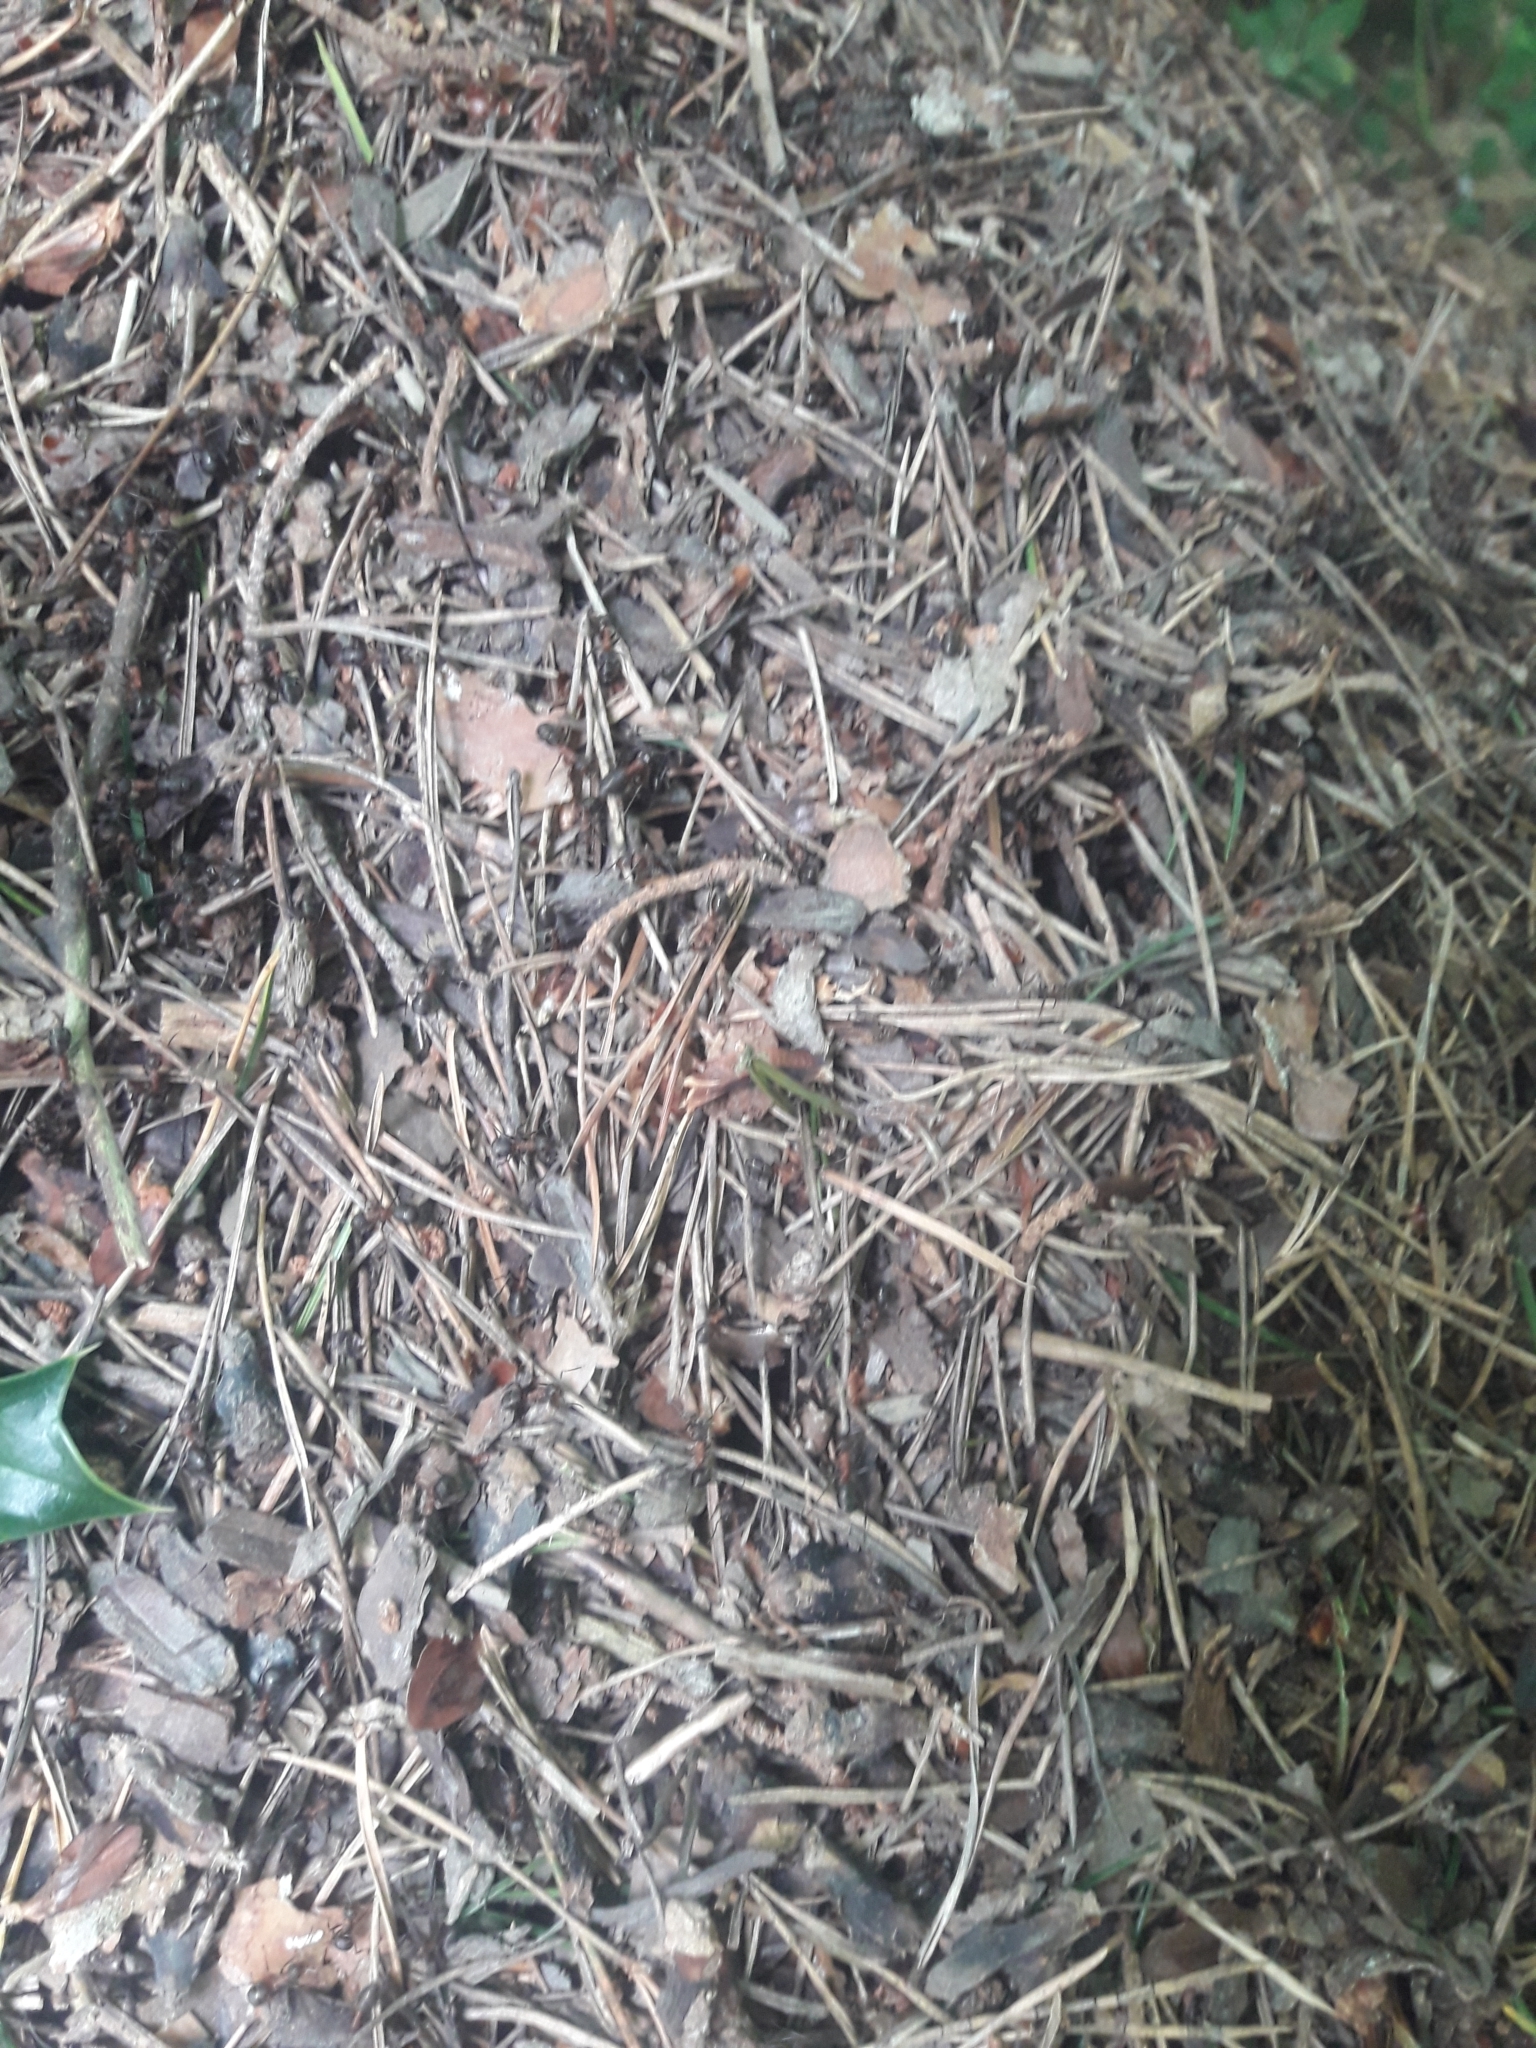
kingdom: Animalia
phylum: Arthropoda
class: Insecta
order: Hymenoptera
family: Formicidae
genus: Formica
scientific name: Formica
